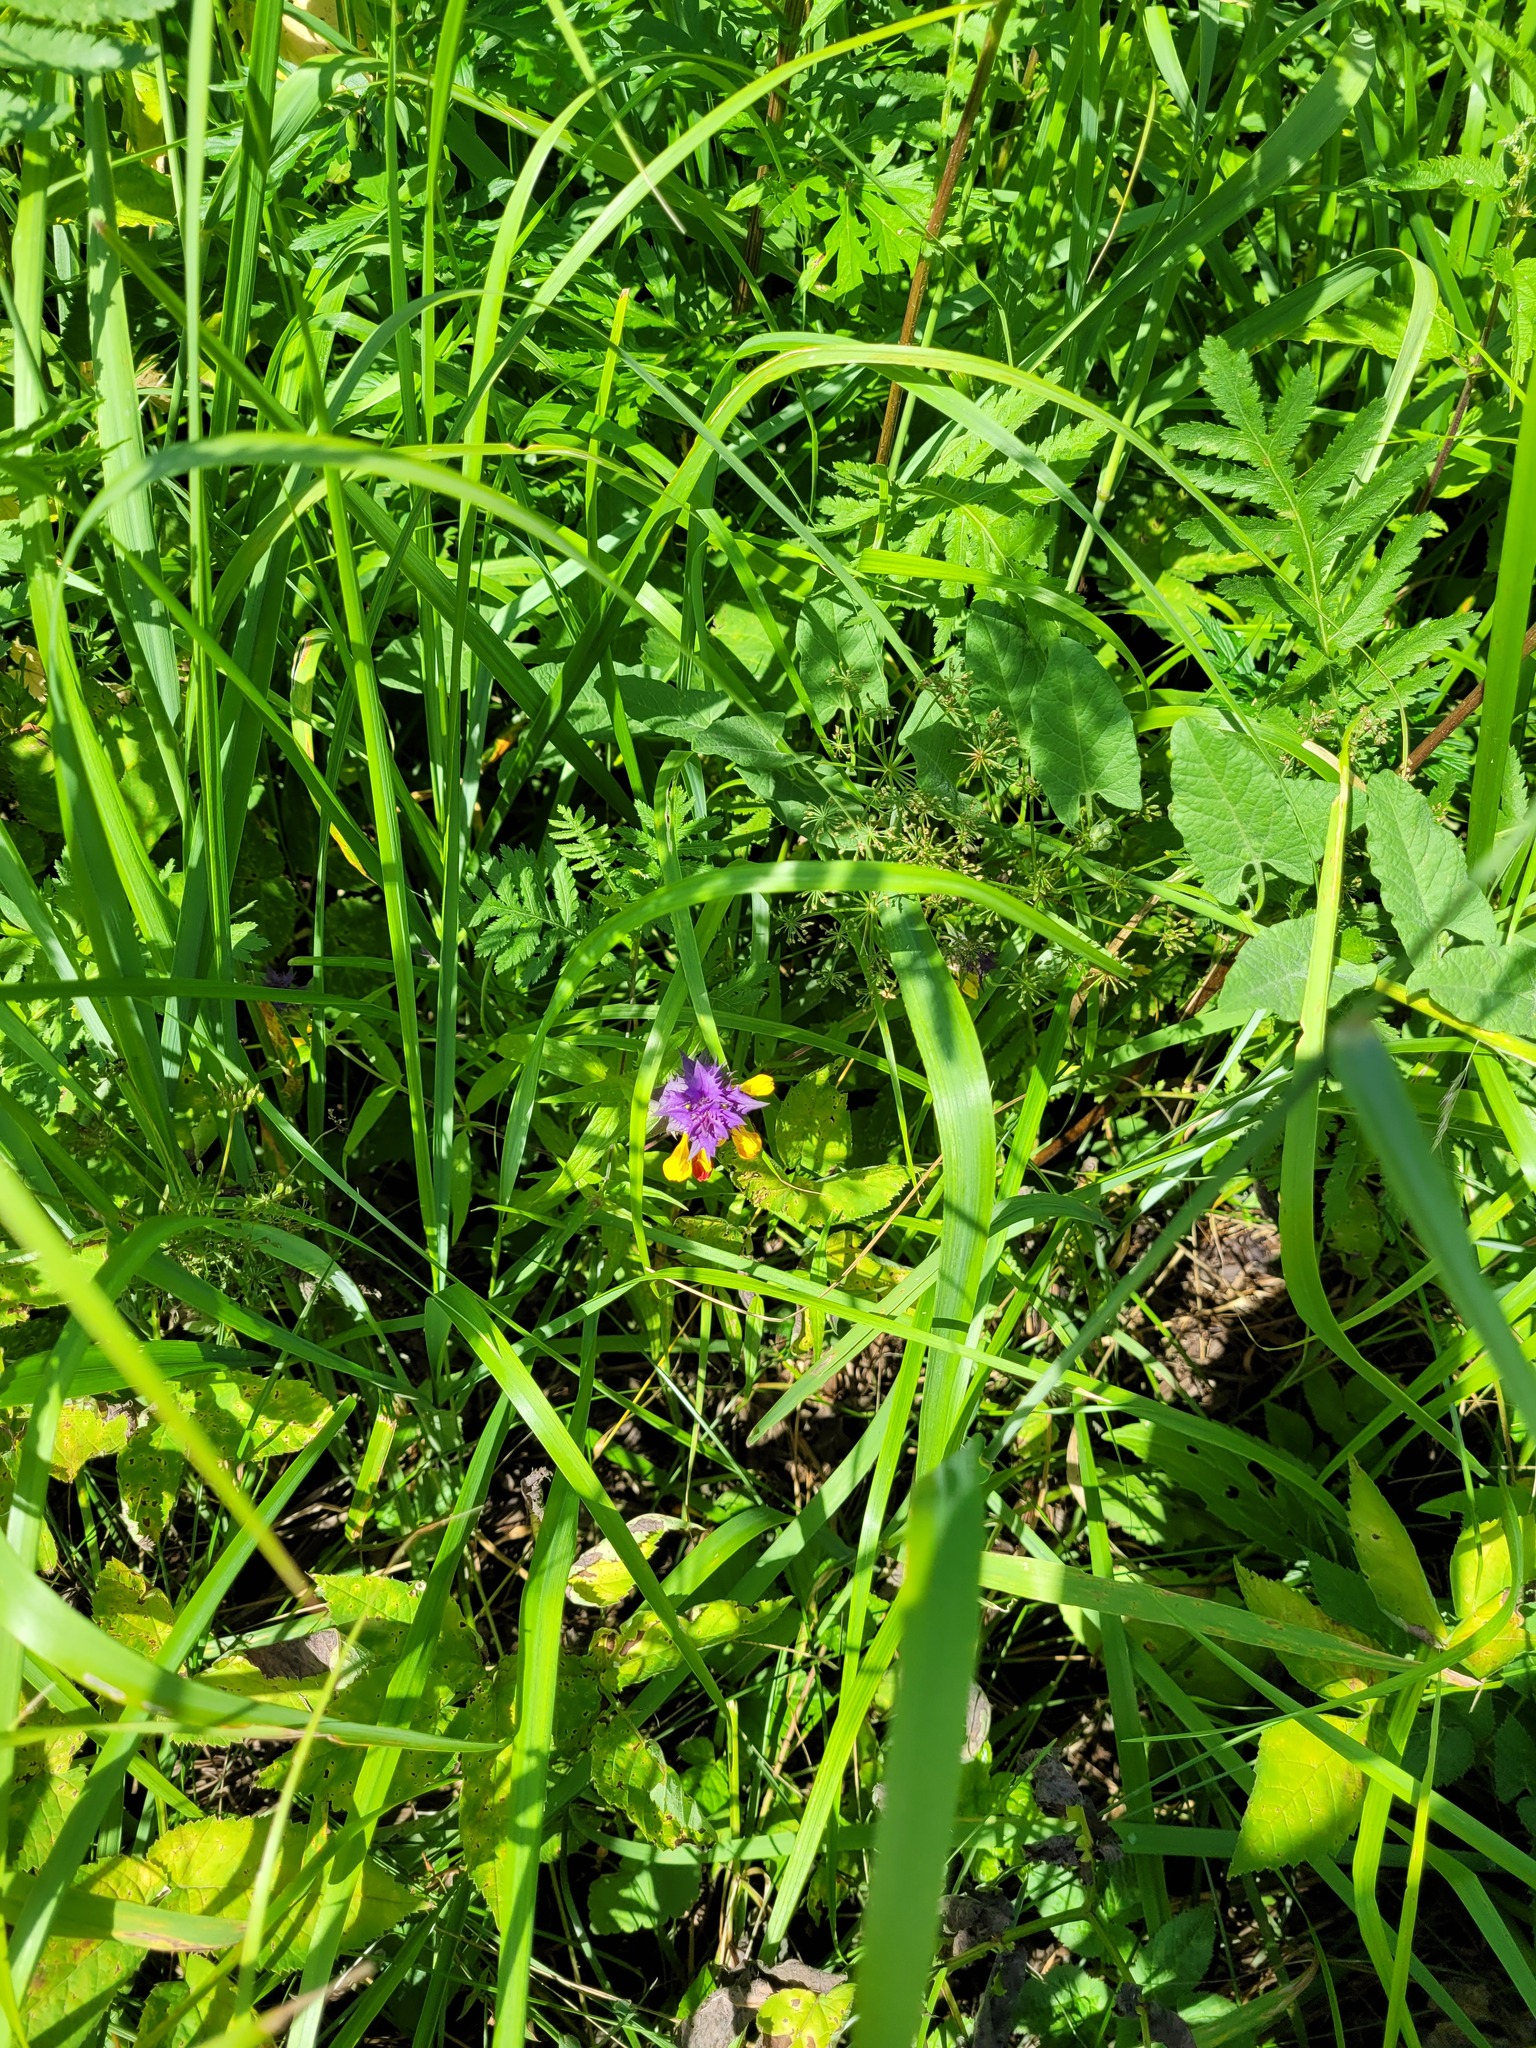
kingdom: Plantae
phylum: Tracheophyta
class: Magnoliopsida
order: Lamiales
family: Orobanchaceae
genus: Melampyrum
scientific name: Melampyrum nemorosum
